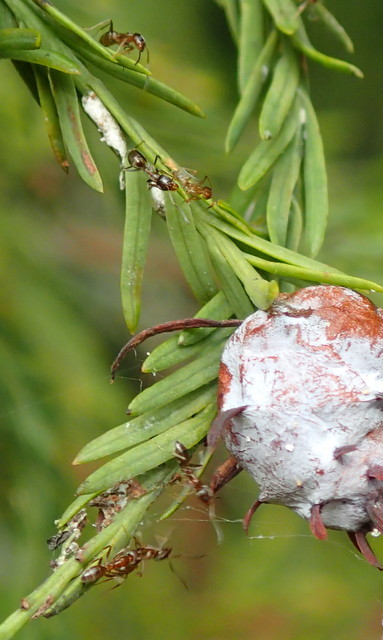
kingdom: Animalia
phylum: Arthropoda
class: Insecta
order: Hymenoptera
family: Formicidae
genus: Linepithema
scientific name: Linepithema humile
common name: Argentine ant
